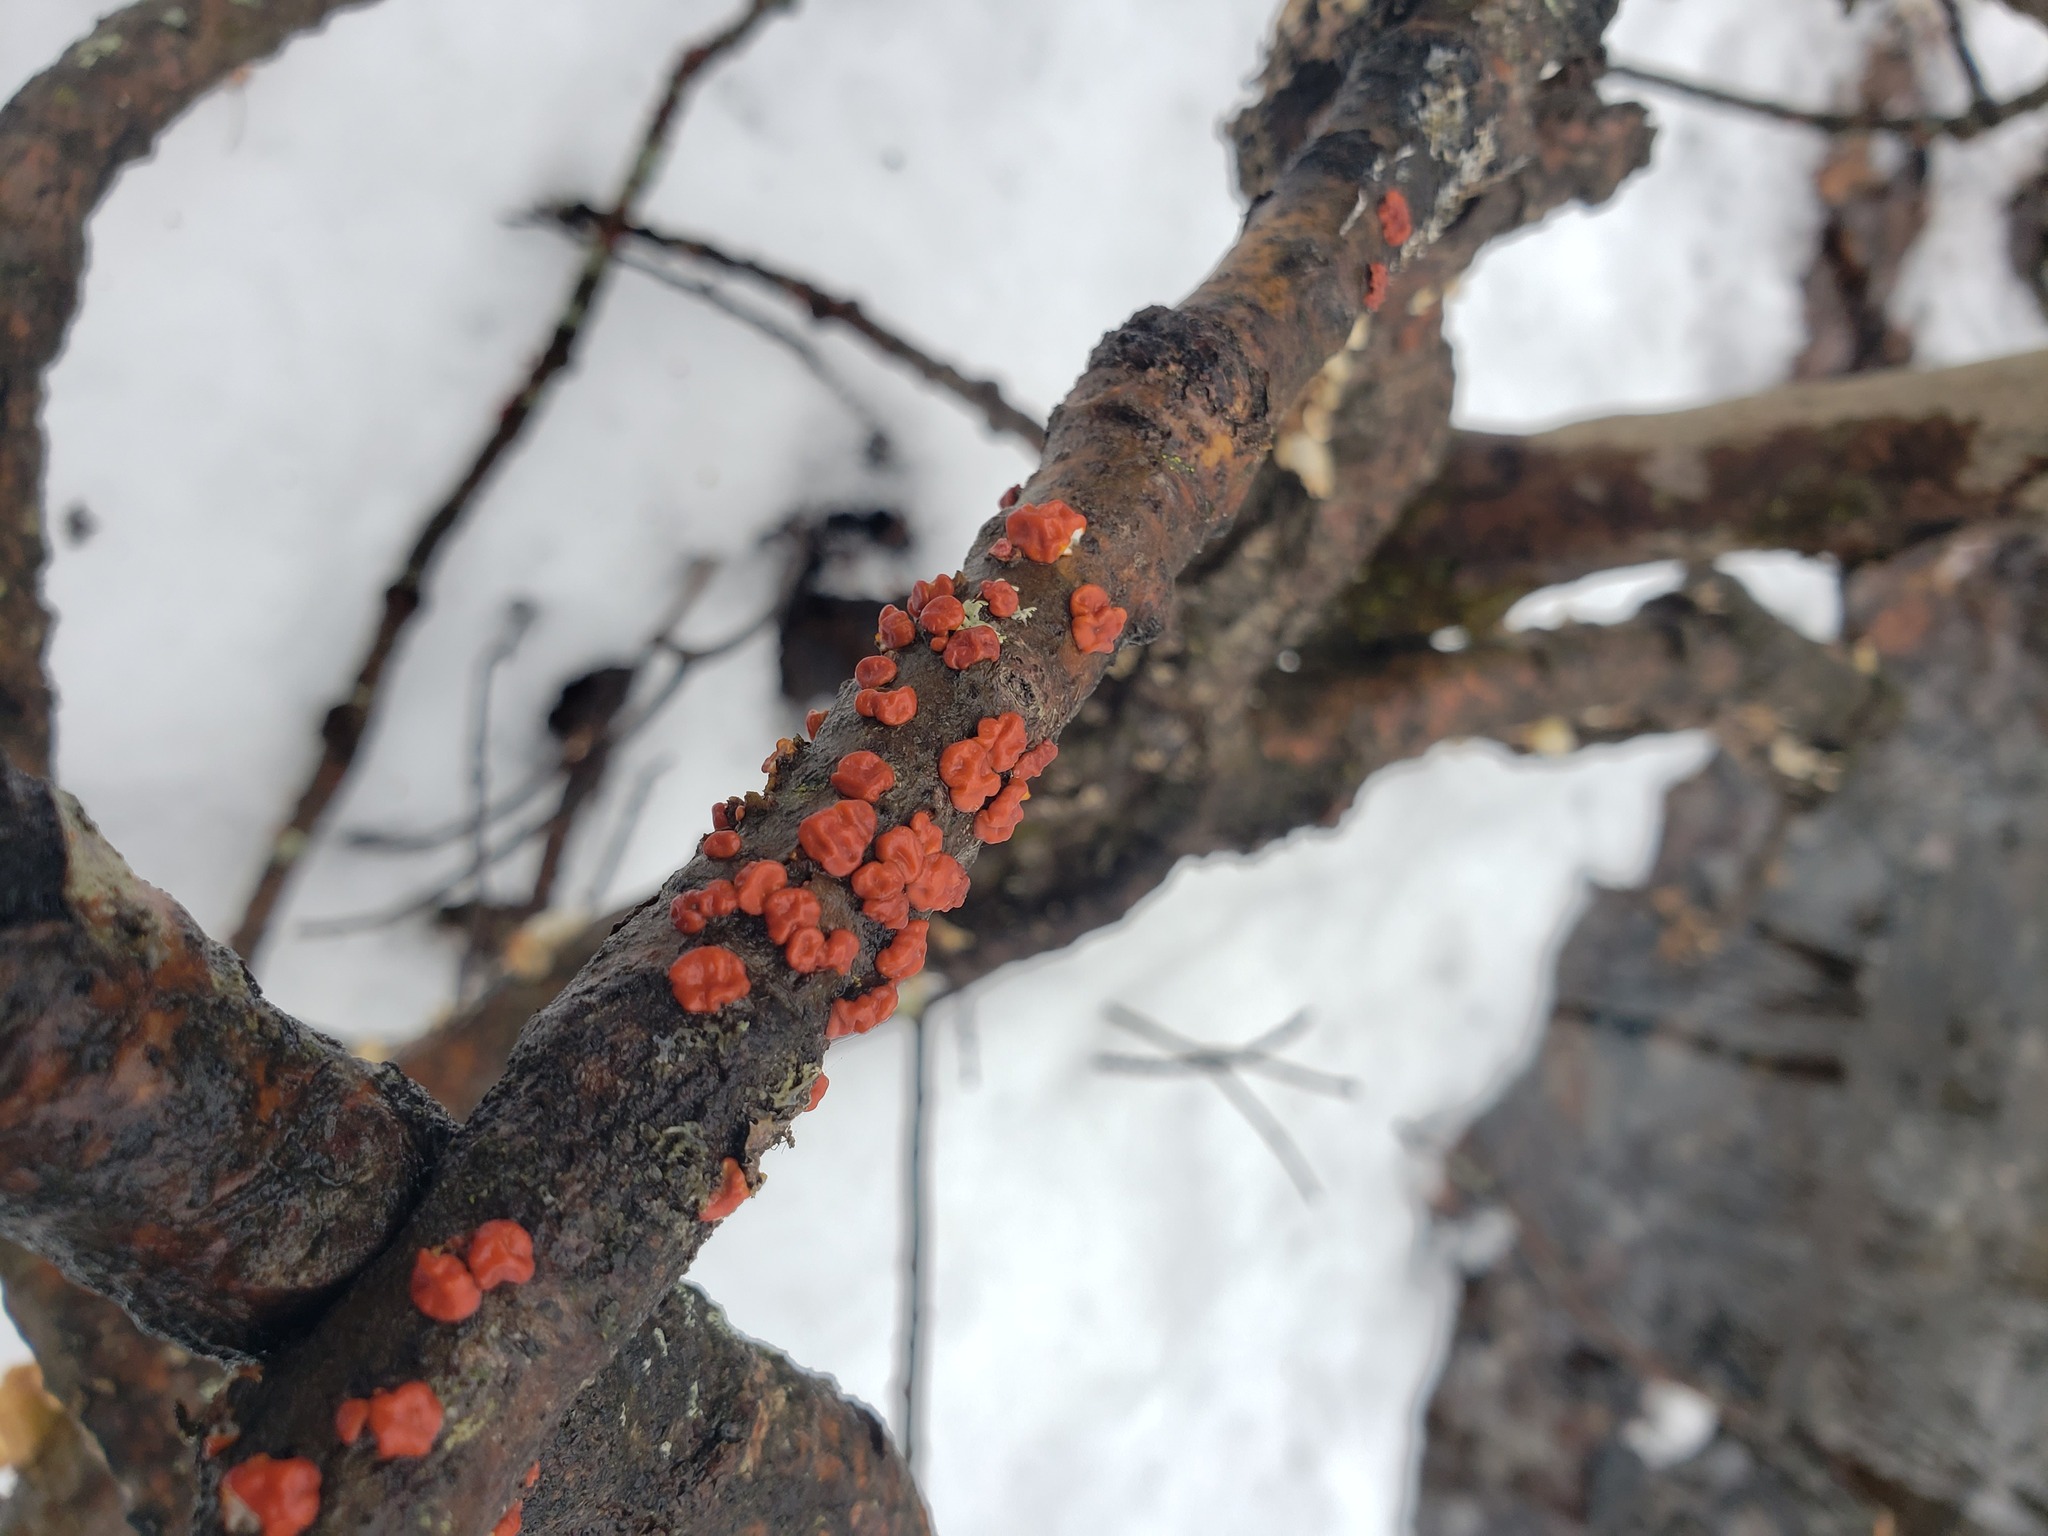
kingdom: Fungi
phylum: Basidiomycota
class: Agaricomycetes
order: Russulales
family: Peniophoraceae
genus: Peniophora
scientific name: Peniophora rufa
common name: Red tree brain fungus
